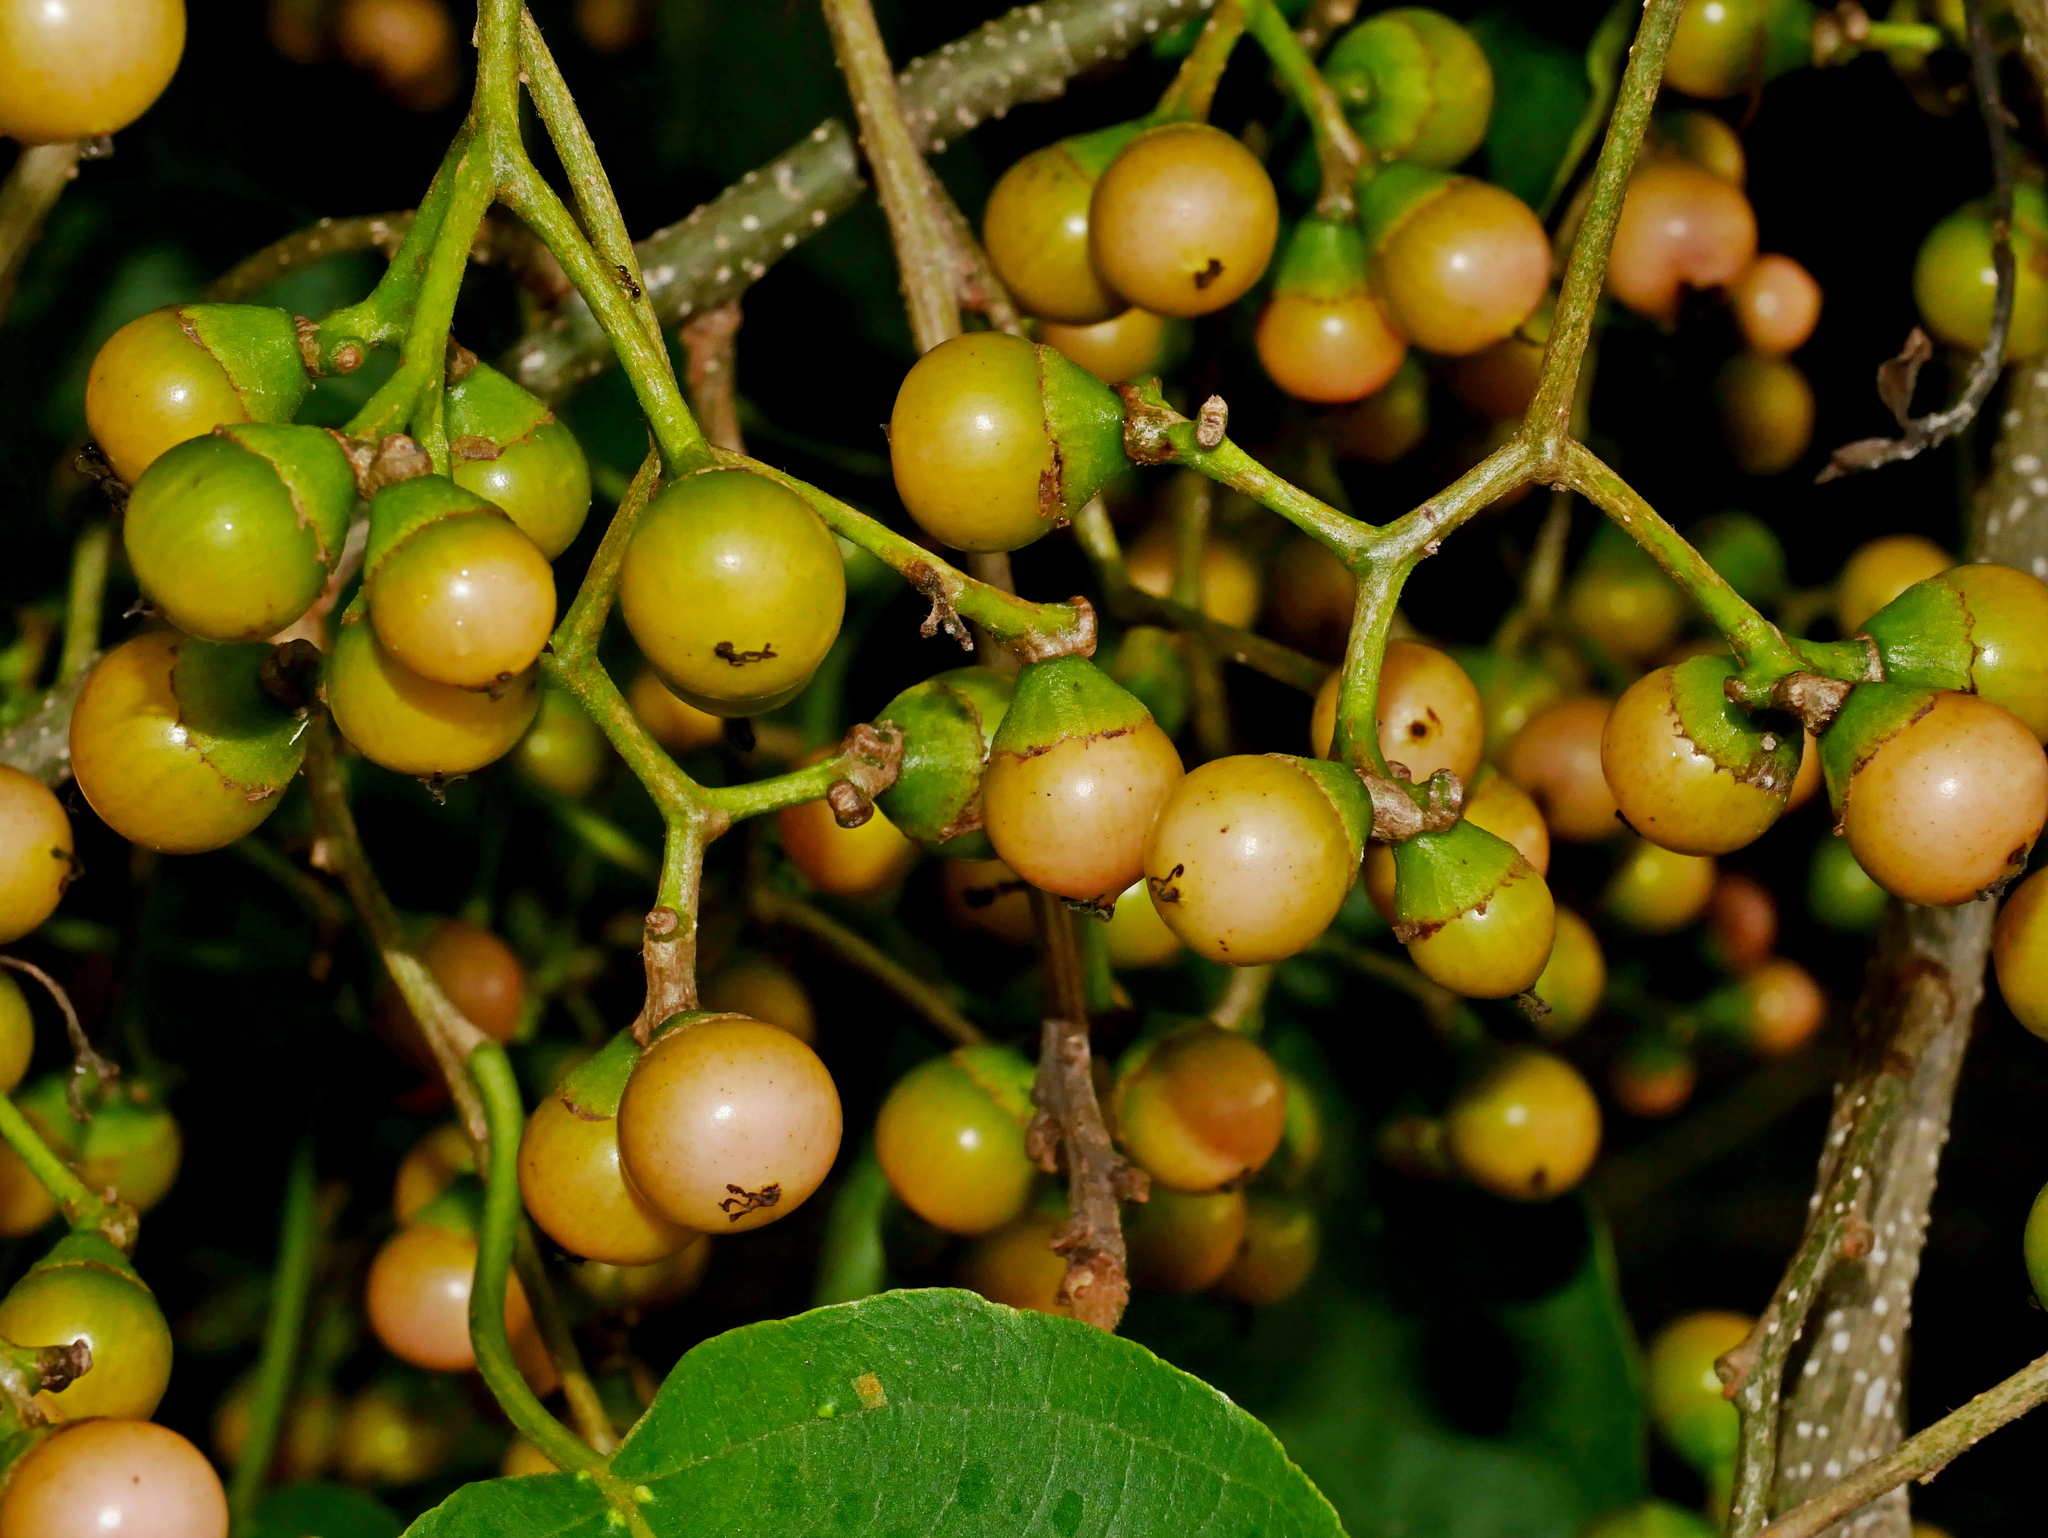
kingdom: Plantae
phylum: Tracheophyta
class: Magnoliopsida
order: Boraginales
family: Cordiaceae
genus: Cordia
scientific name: Cordia dichotoma
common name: Fragrant manjack
